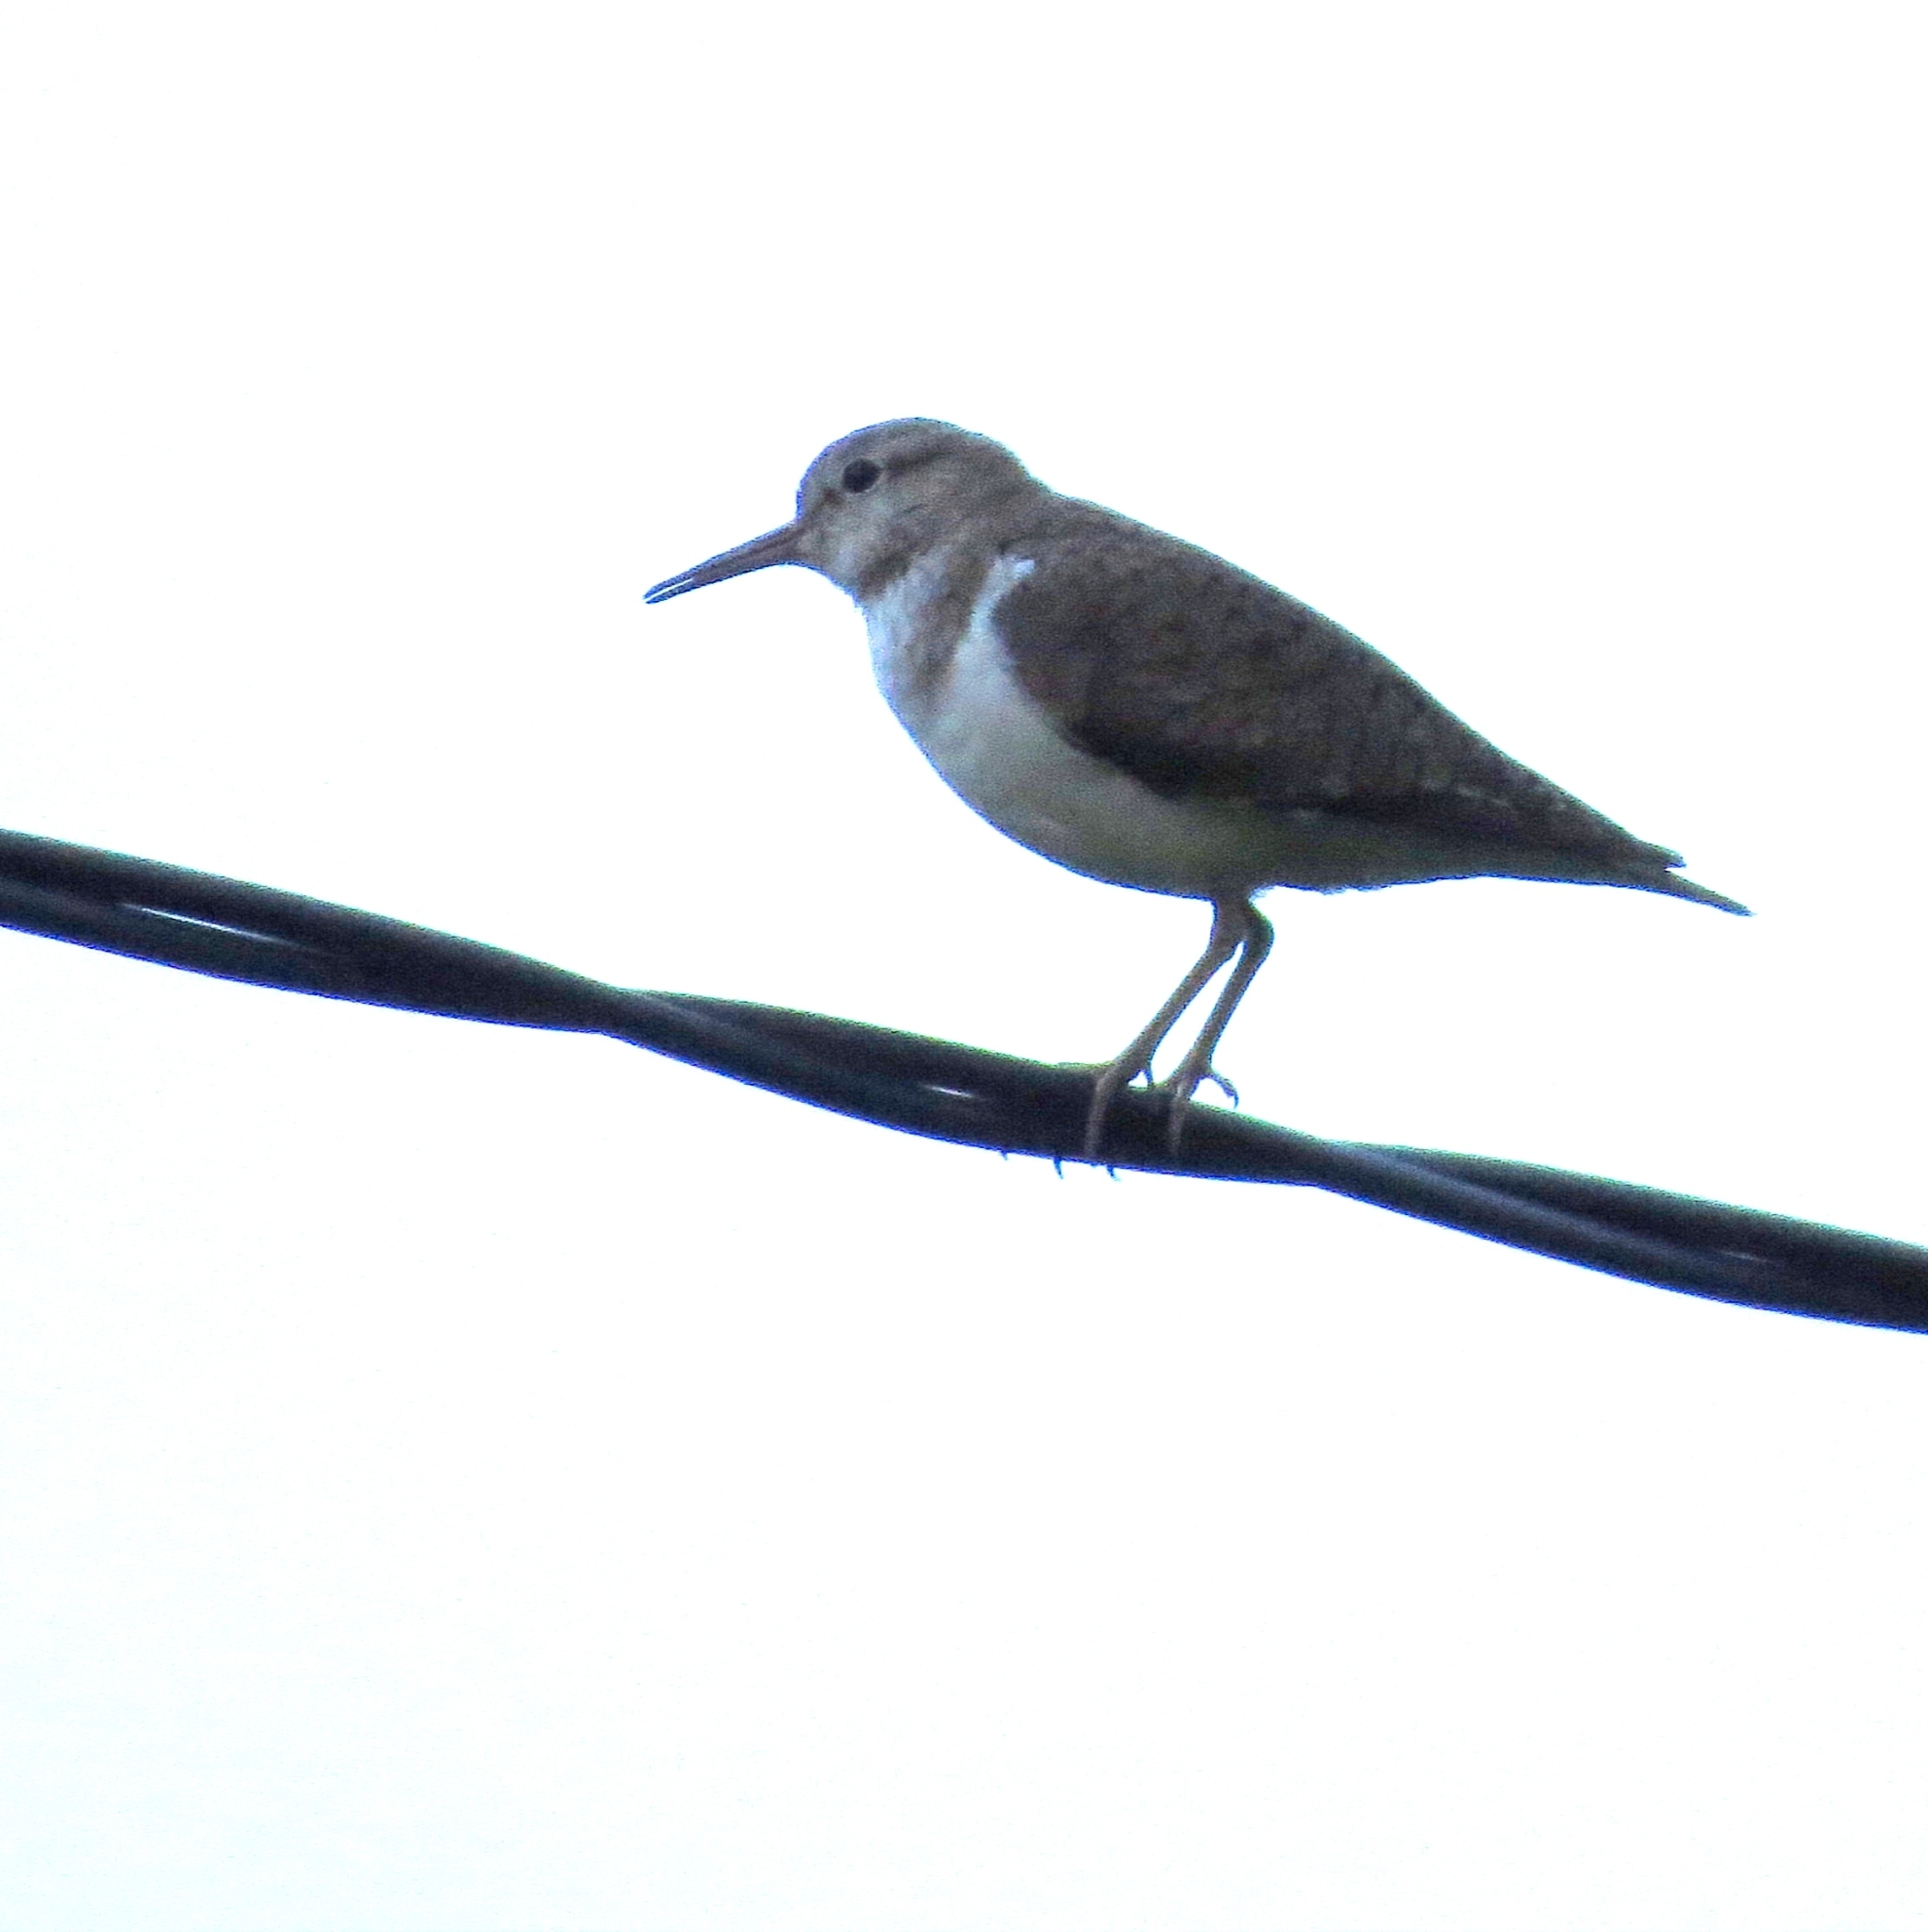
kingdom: Animalia
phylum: Chordata
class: Aves
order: Charadriiformes
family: Scolopacidae
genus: Actitis
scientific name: Actitis hypoleucos
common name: Common sandpiper
